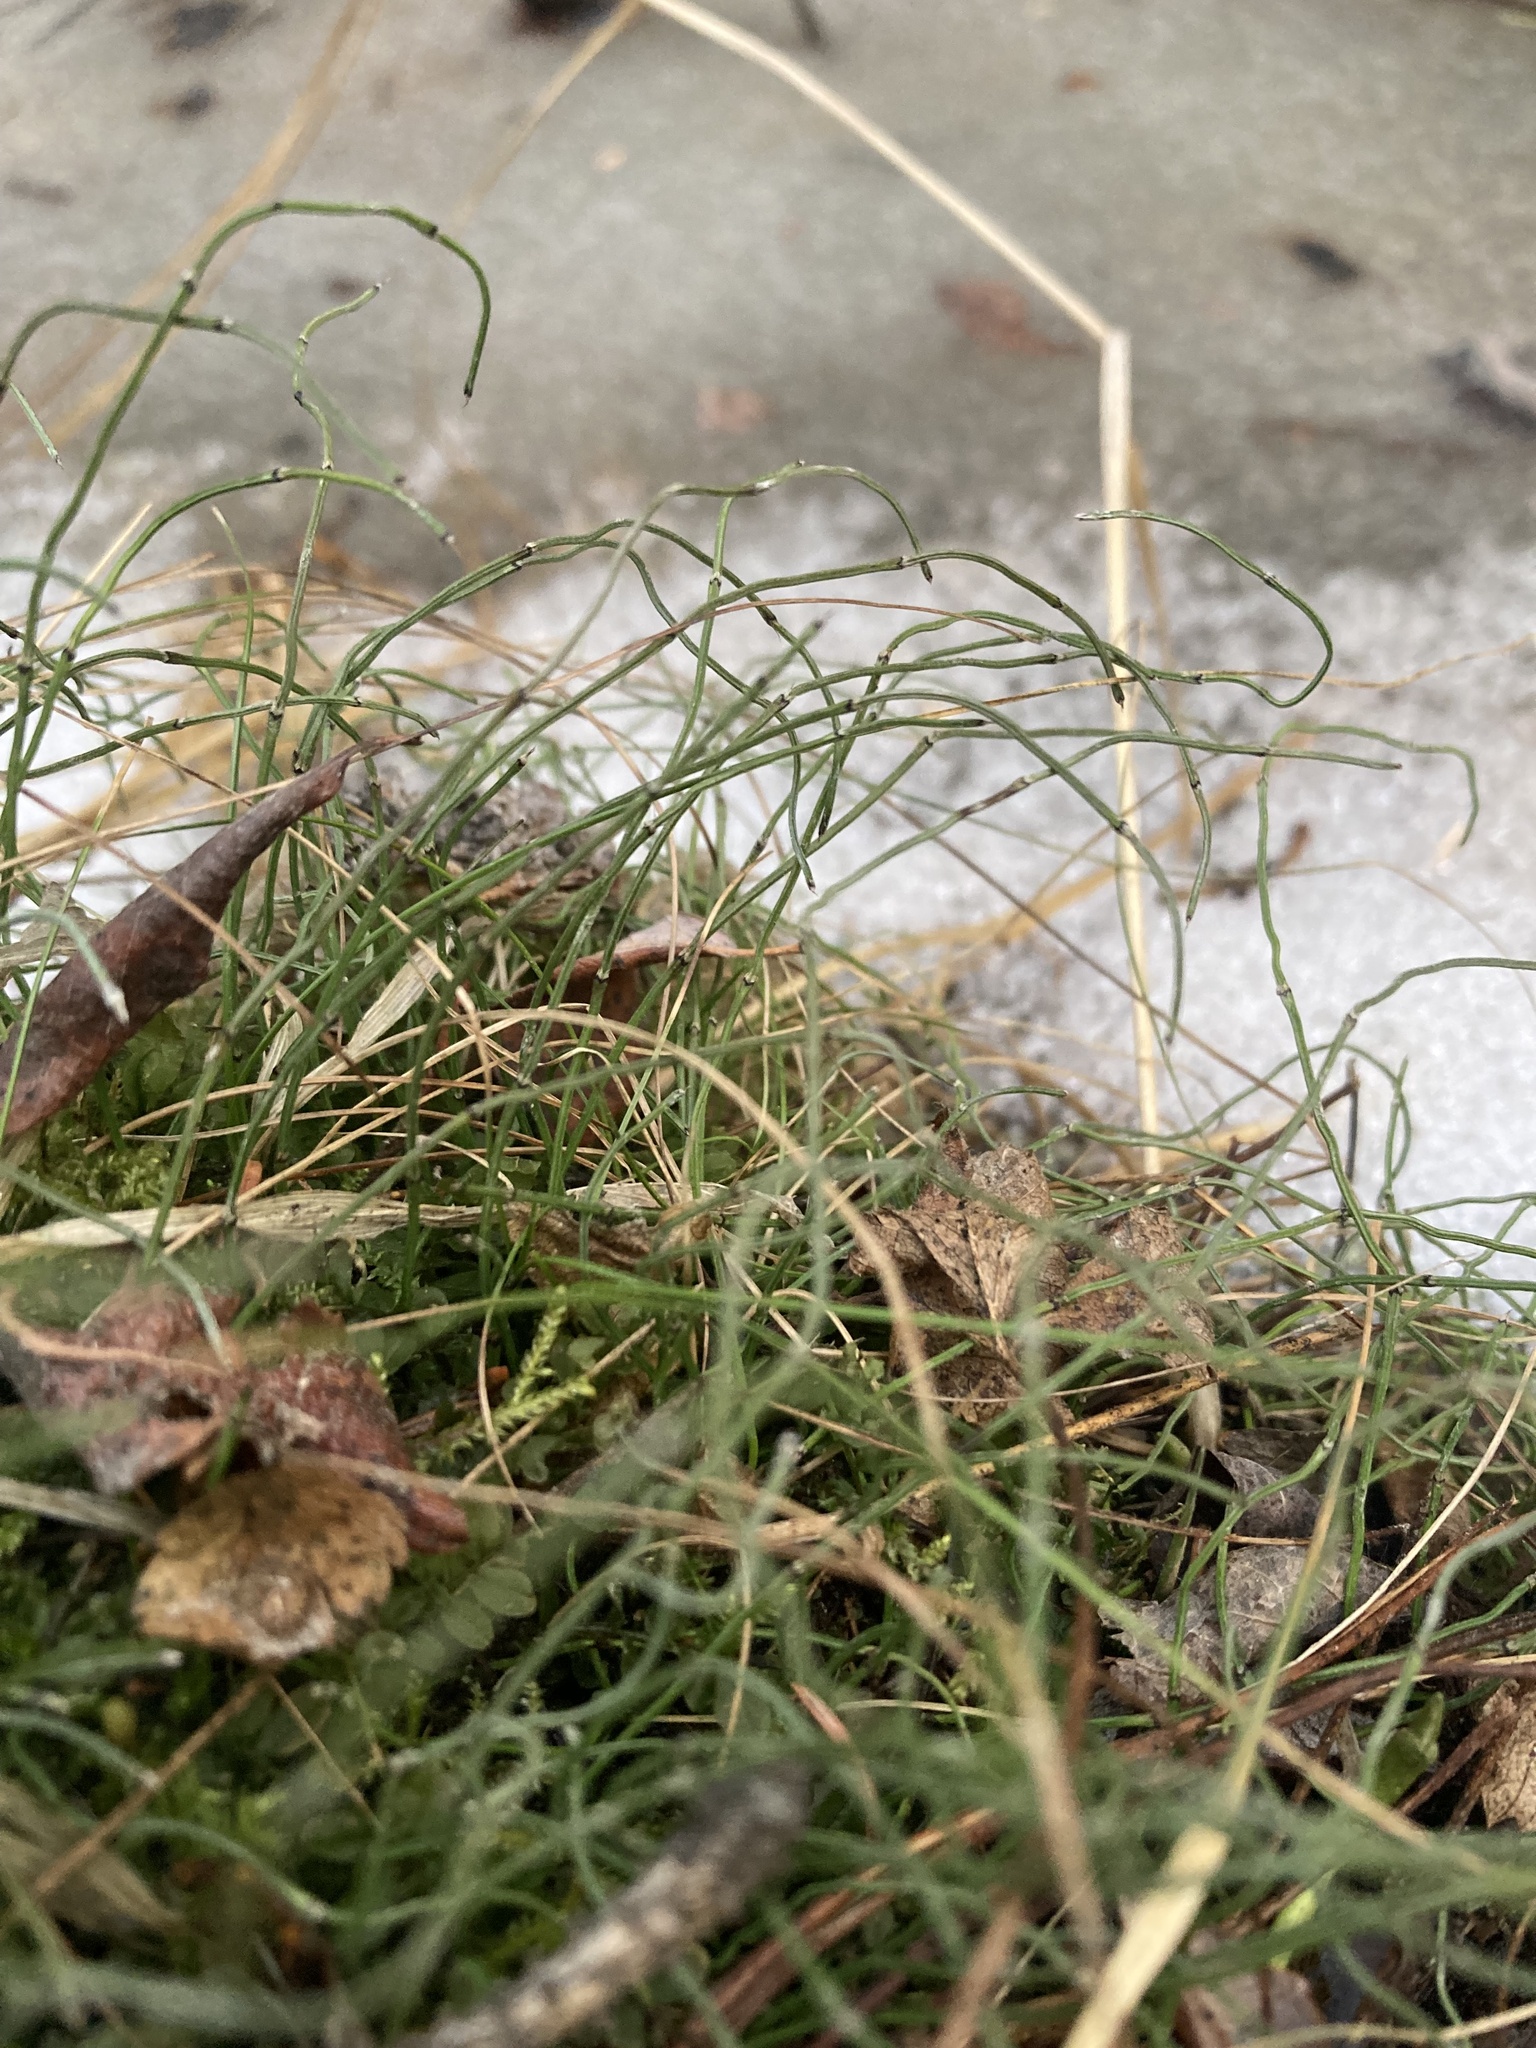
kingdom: Plantae
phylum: Tracheophyta
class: Polypodiopsida
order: Equisetales
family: Equisetaceae
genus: Equisetum
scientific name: Equisetum scirpoides
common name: Delicate horsetail
